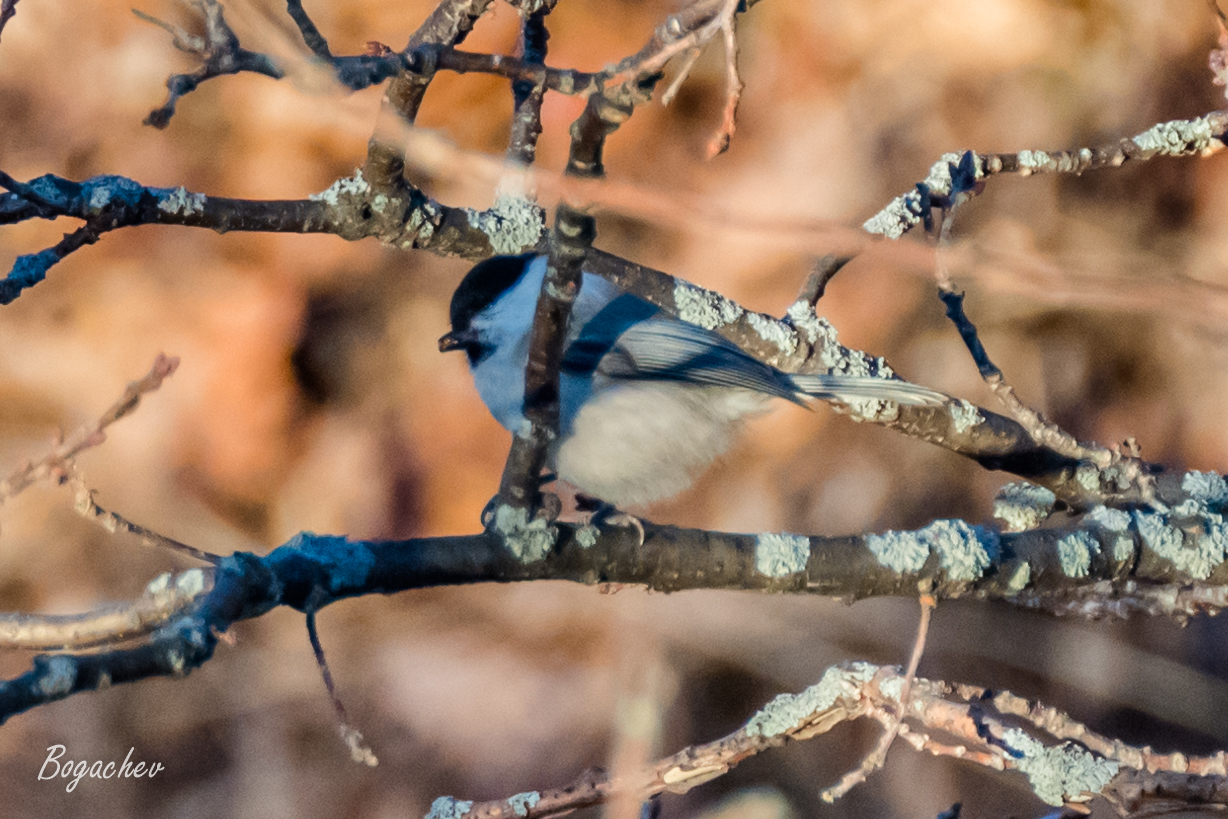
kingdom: Animalia
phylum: Chordata
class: Aves
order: Passeriformes
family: Paridae
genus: Poecile
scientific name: Poecile montanus
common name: Willow tit
